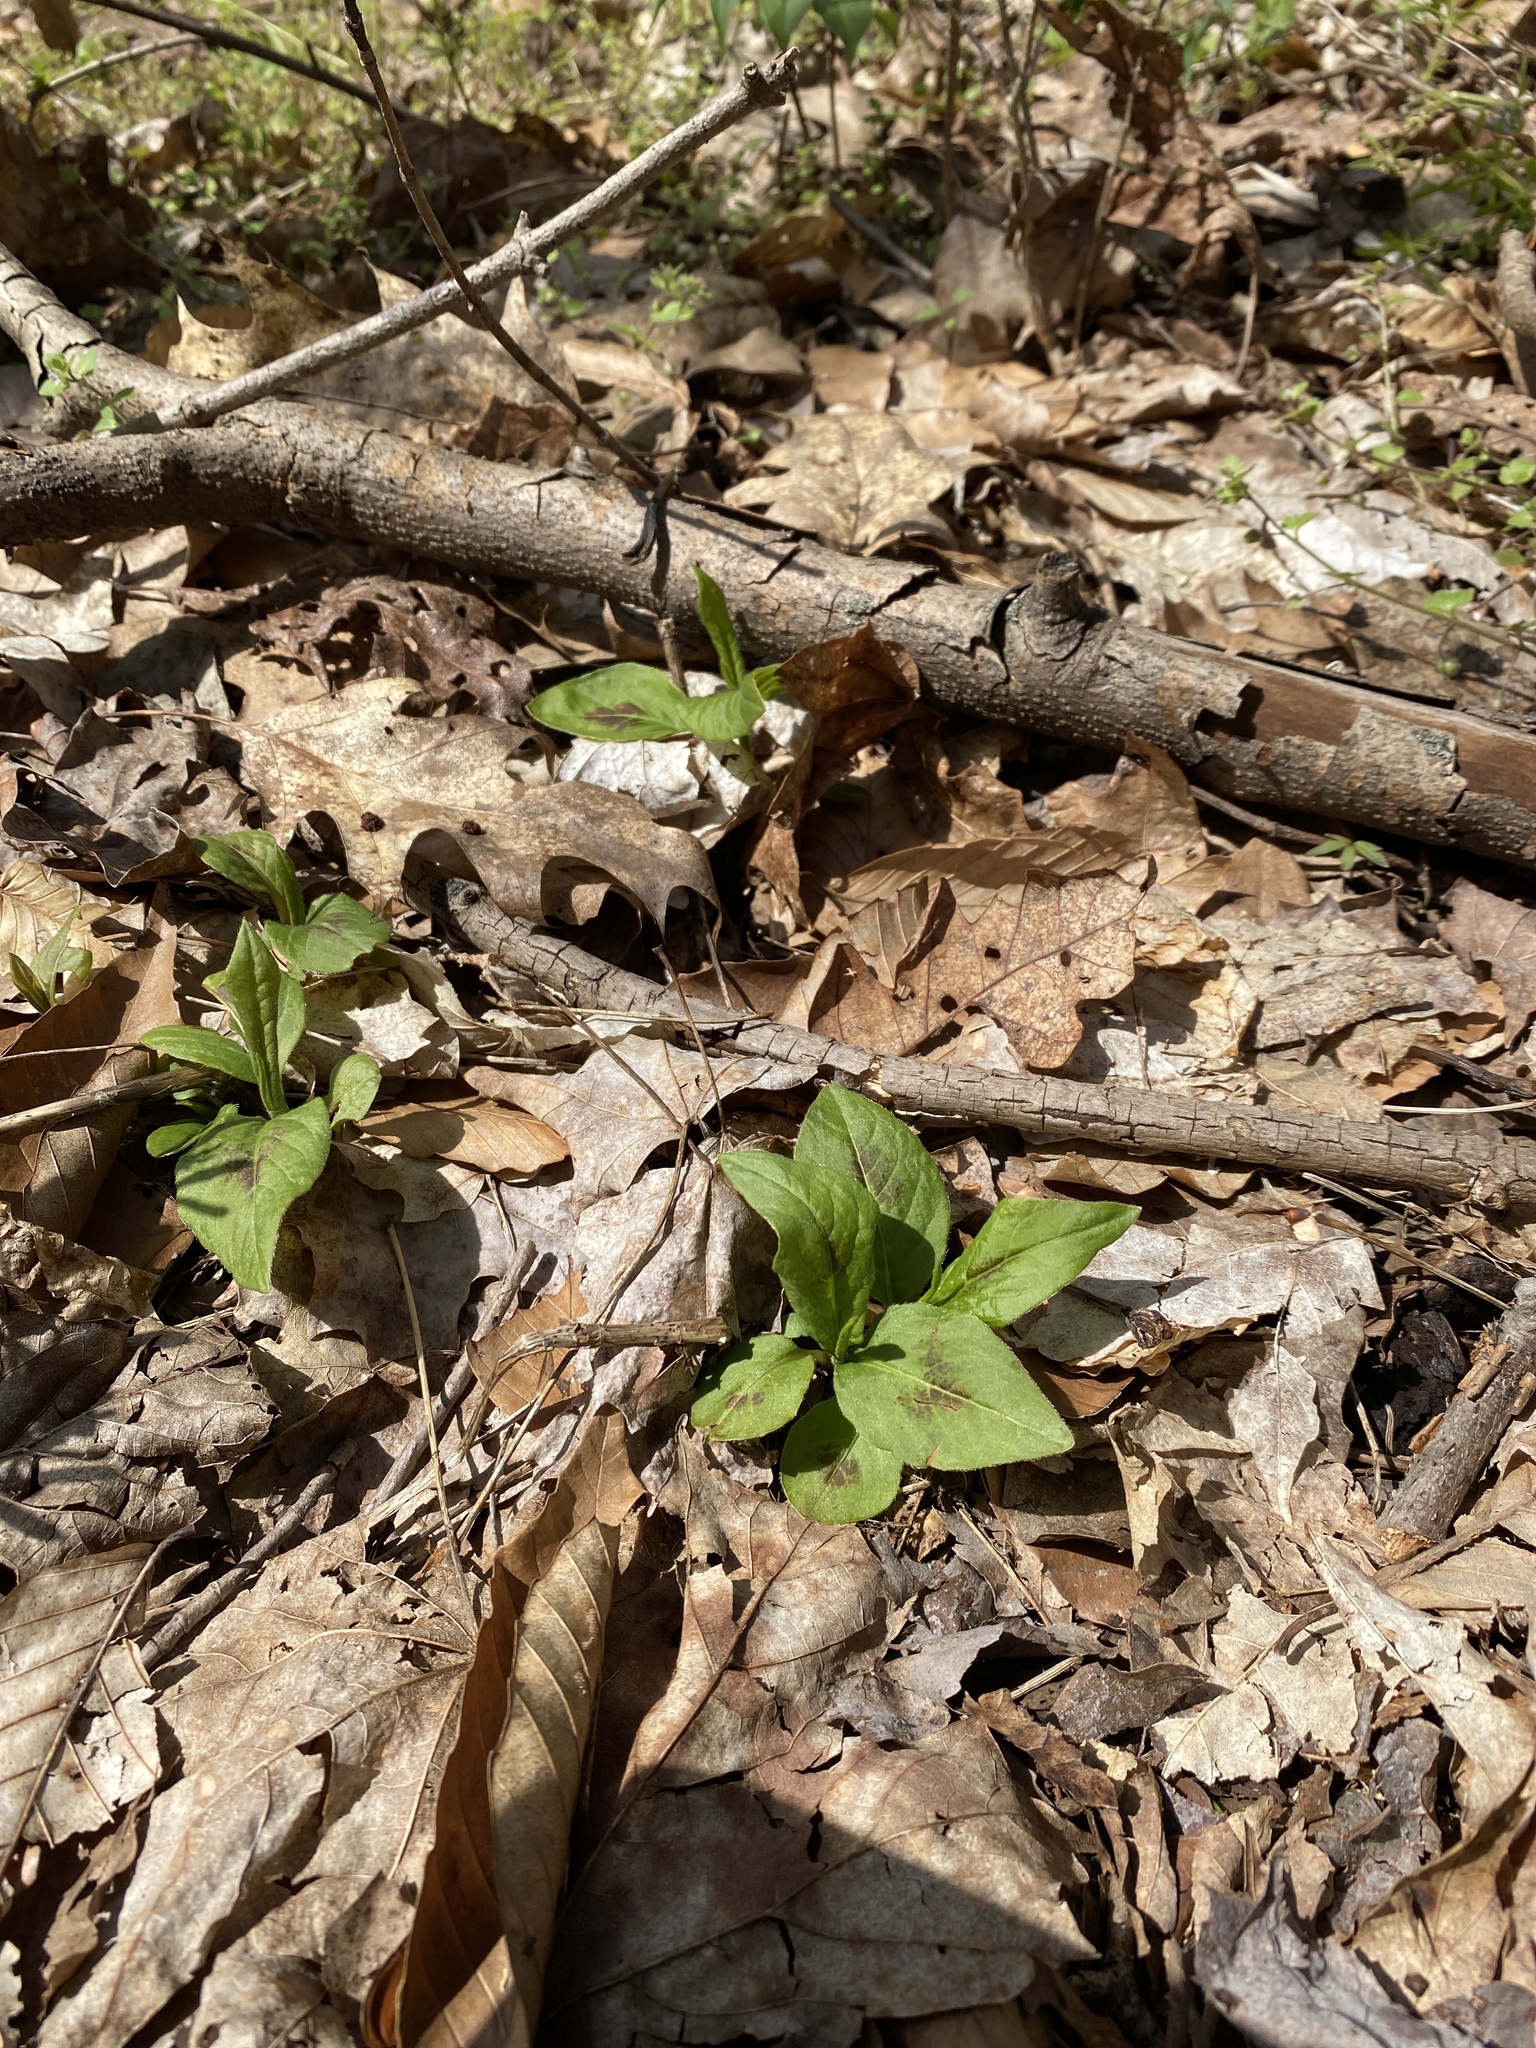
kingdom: Plantae
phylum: Tracheophyta
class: Magnoliopsida
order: Caryophyllales
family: Polygonaceae
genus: Persicaria
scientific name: Persicaria virginiana
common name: Jumpseed
